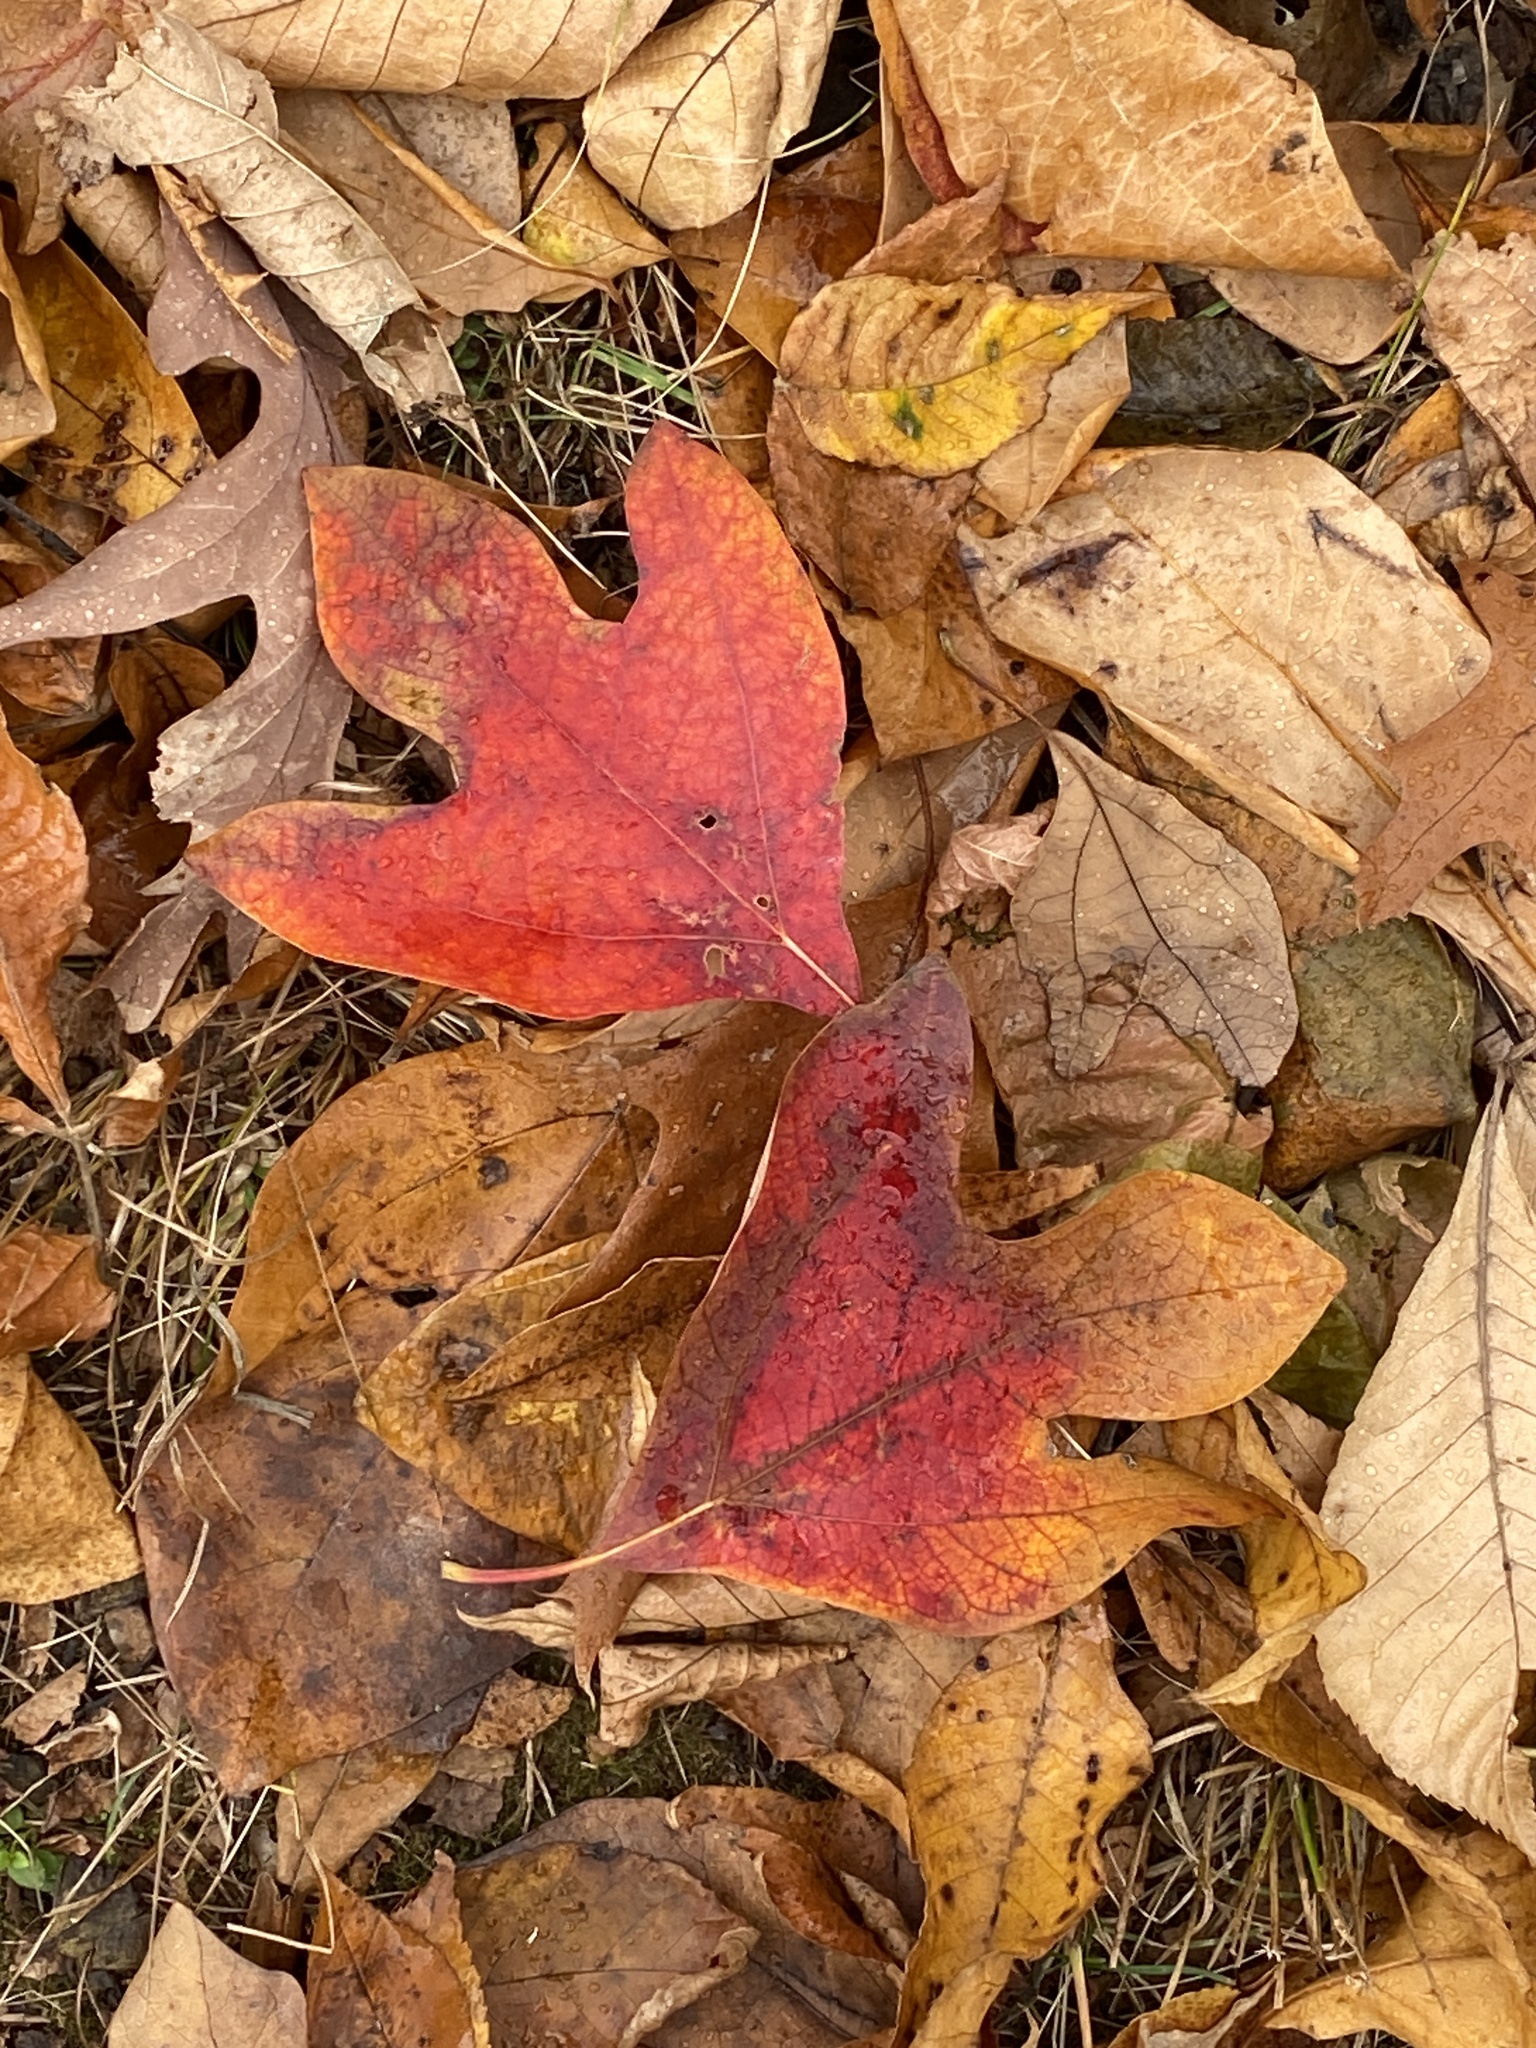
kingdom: Plantae
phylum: Tracheophyta
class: Magnoliopsida
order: Laurales
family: Lauraceae
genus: Sassafras
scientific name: Sassafras albidum
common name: Sassafras
